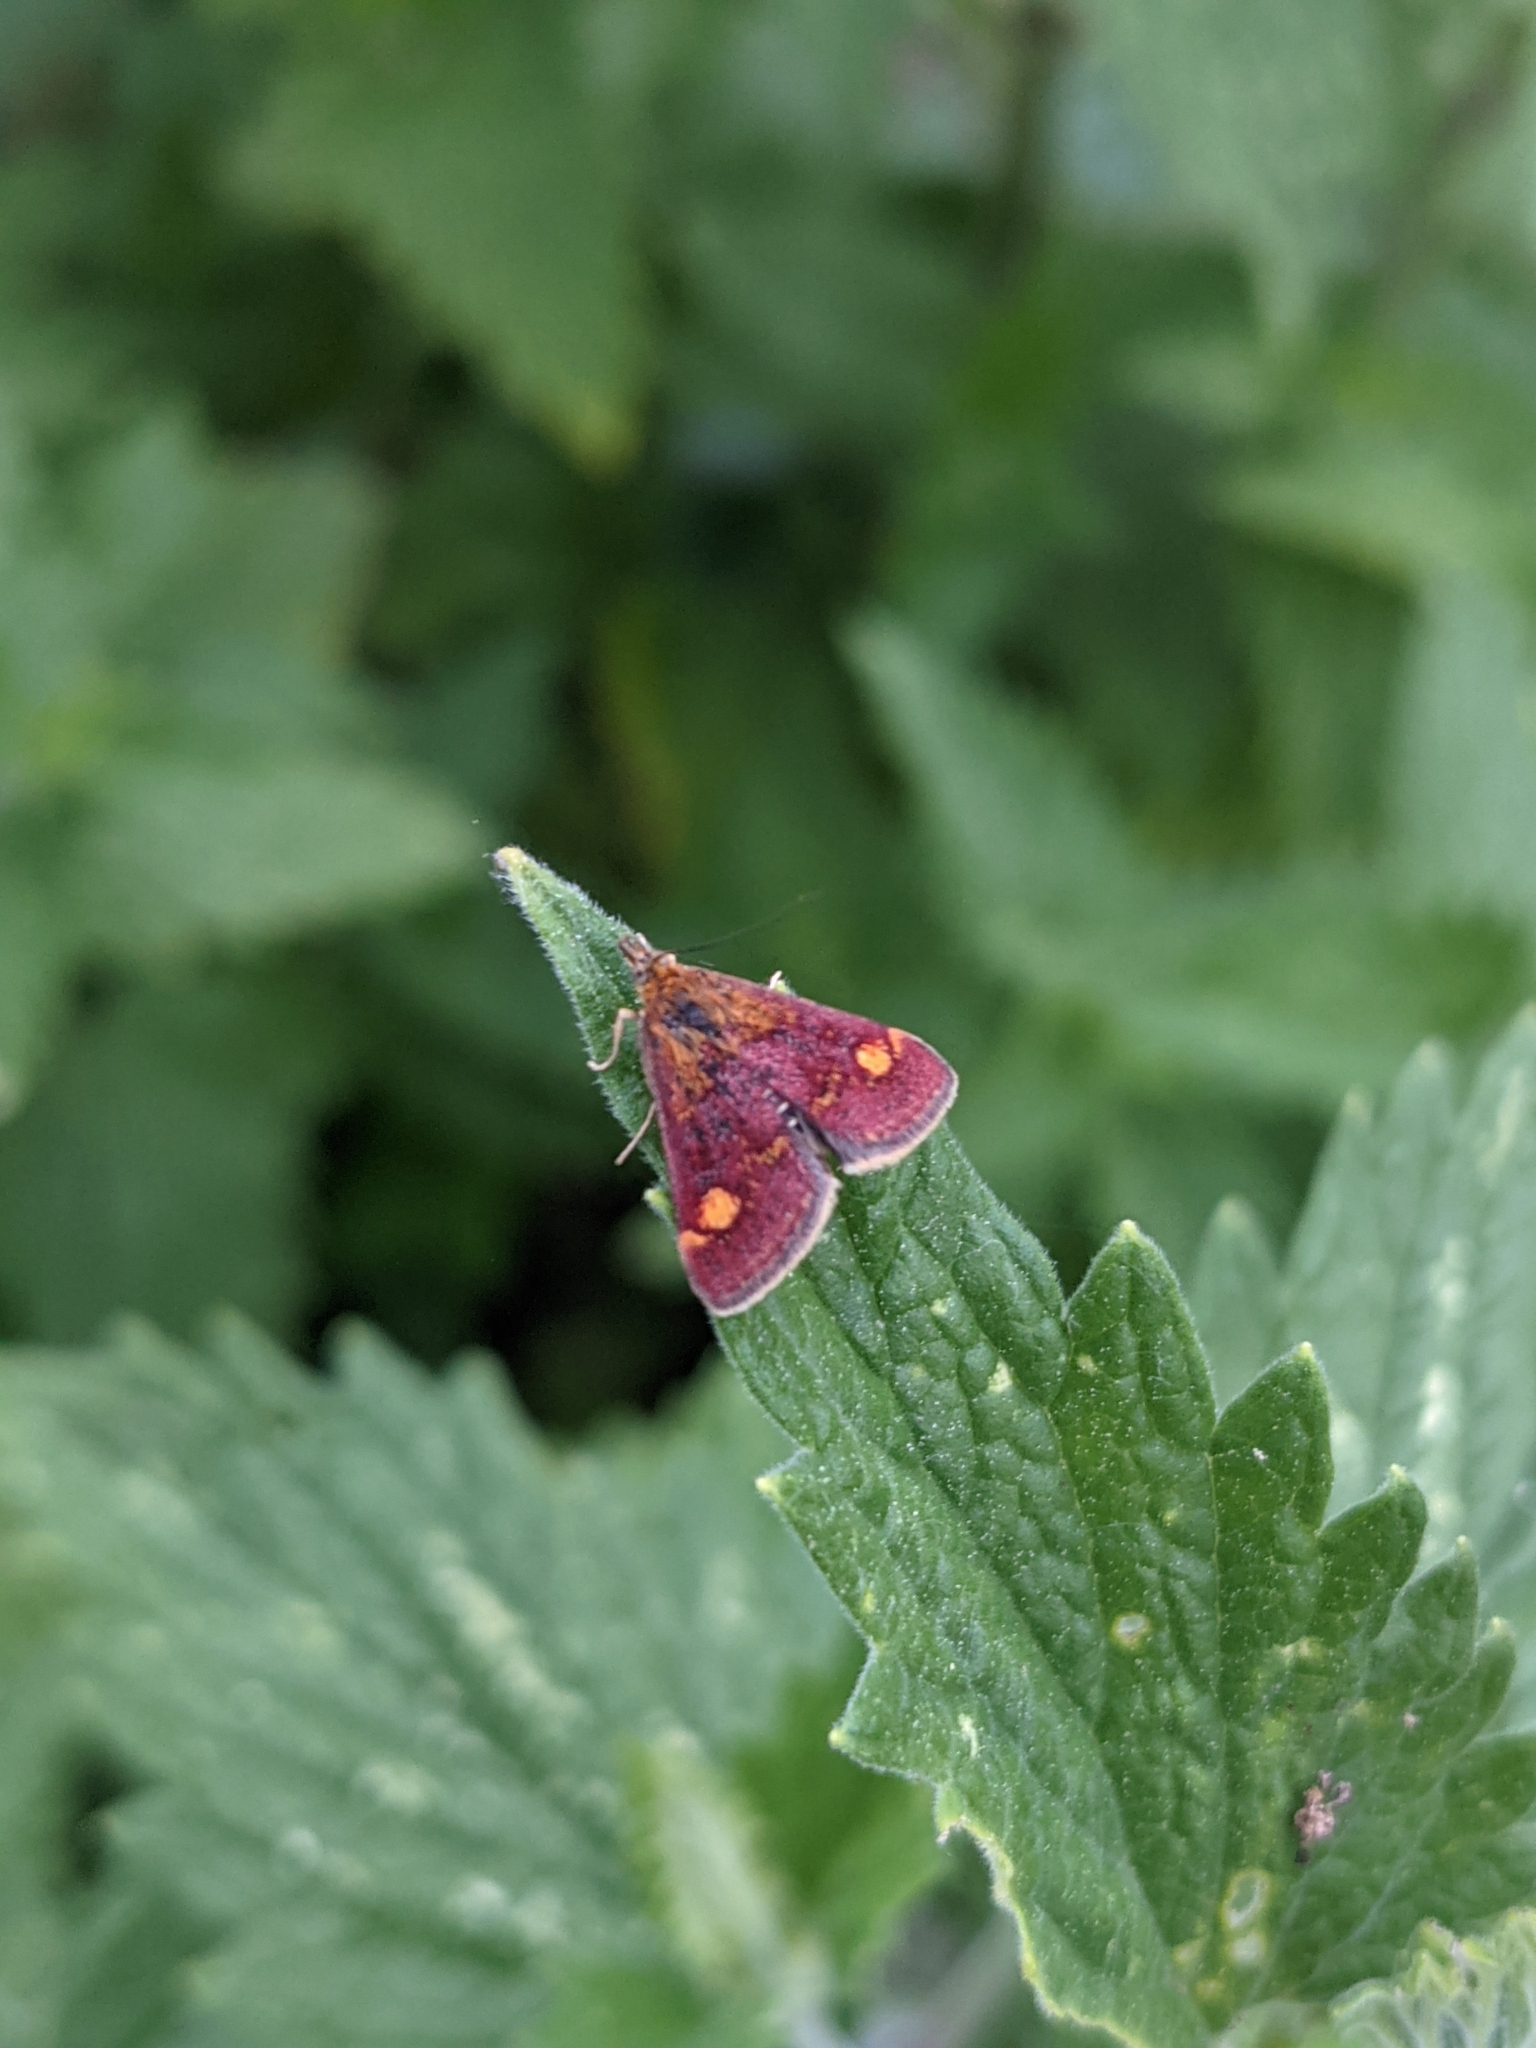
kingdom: Animalia
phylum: Arthropoda
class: Insecta
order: Lepidoptera
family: Crambidae
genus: Pyrausta
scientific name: Pyrausta aurata
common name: Small purple & gold
